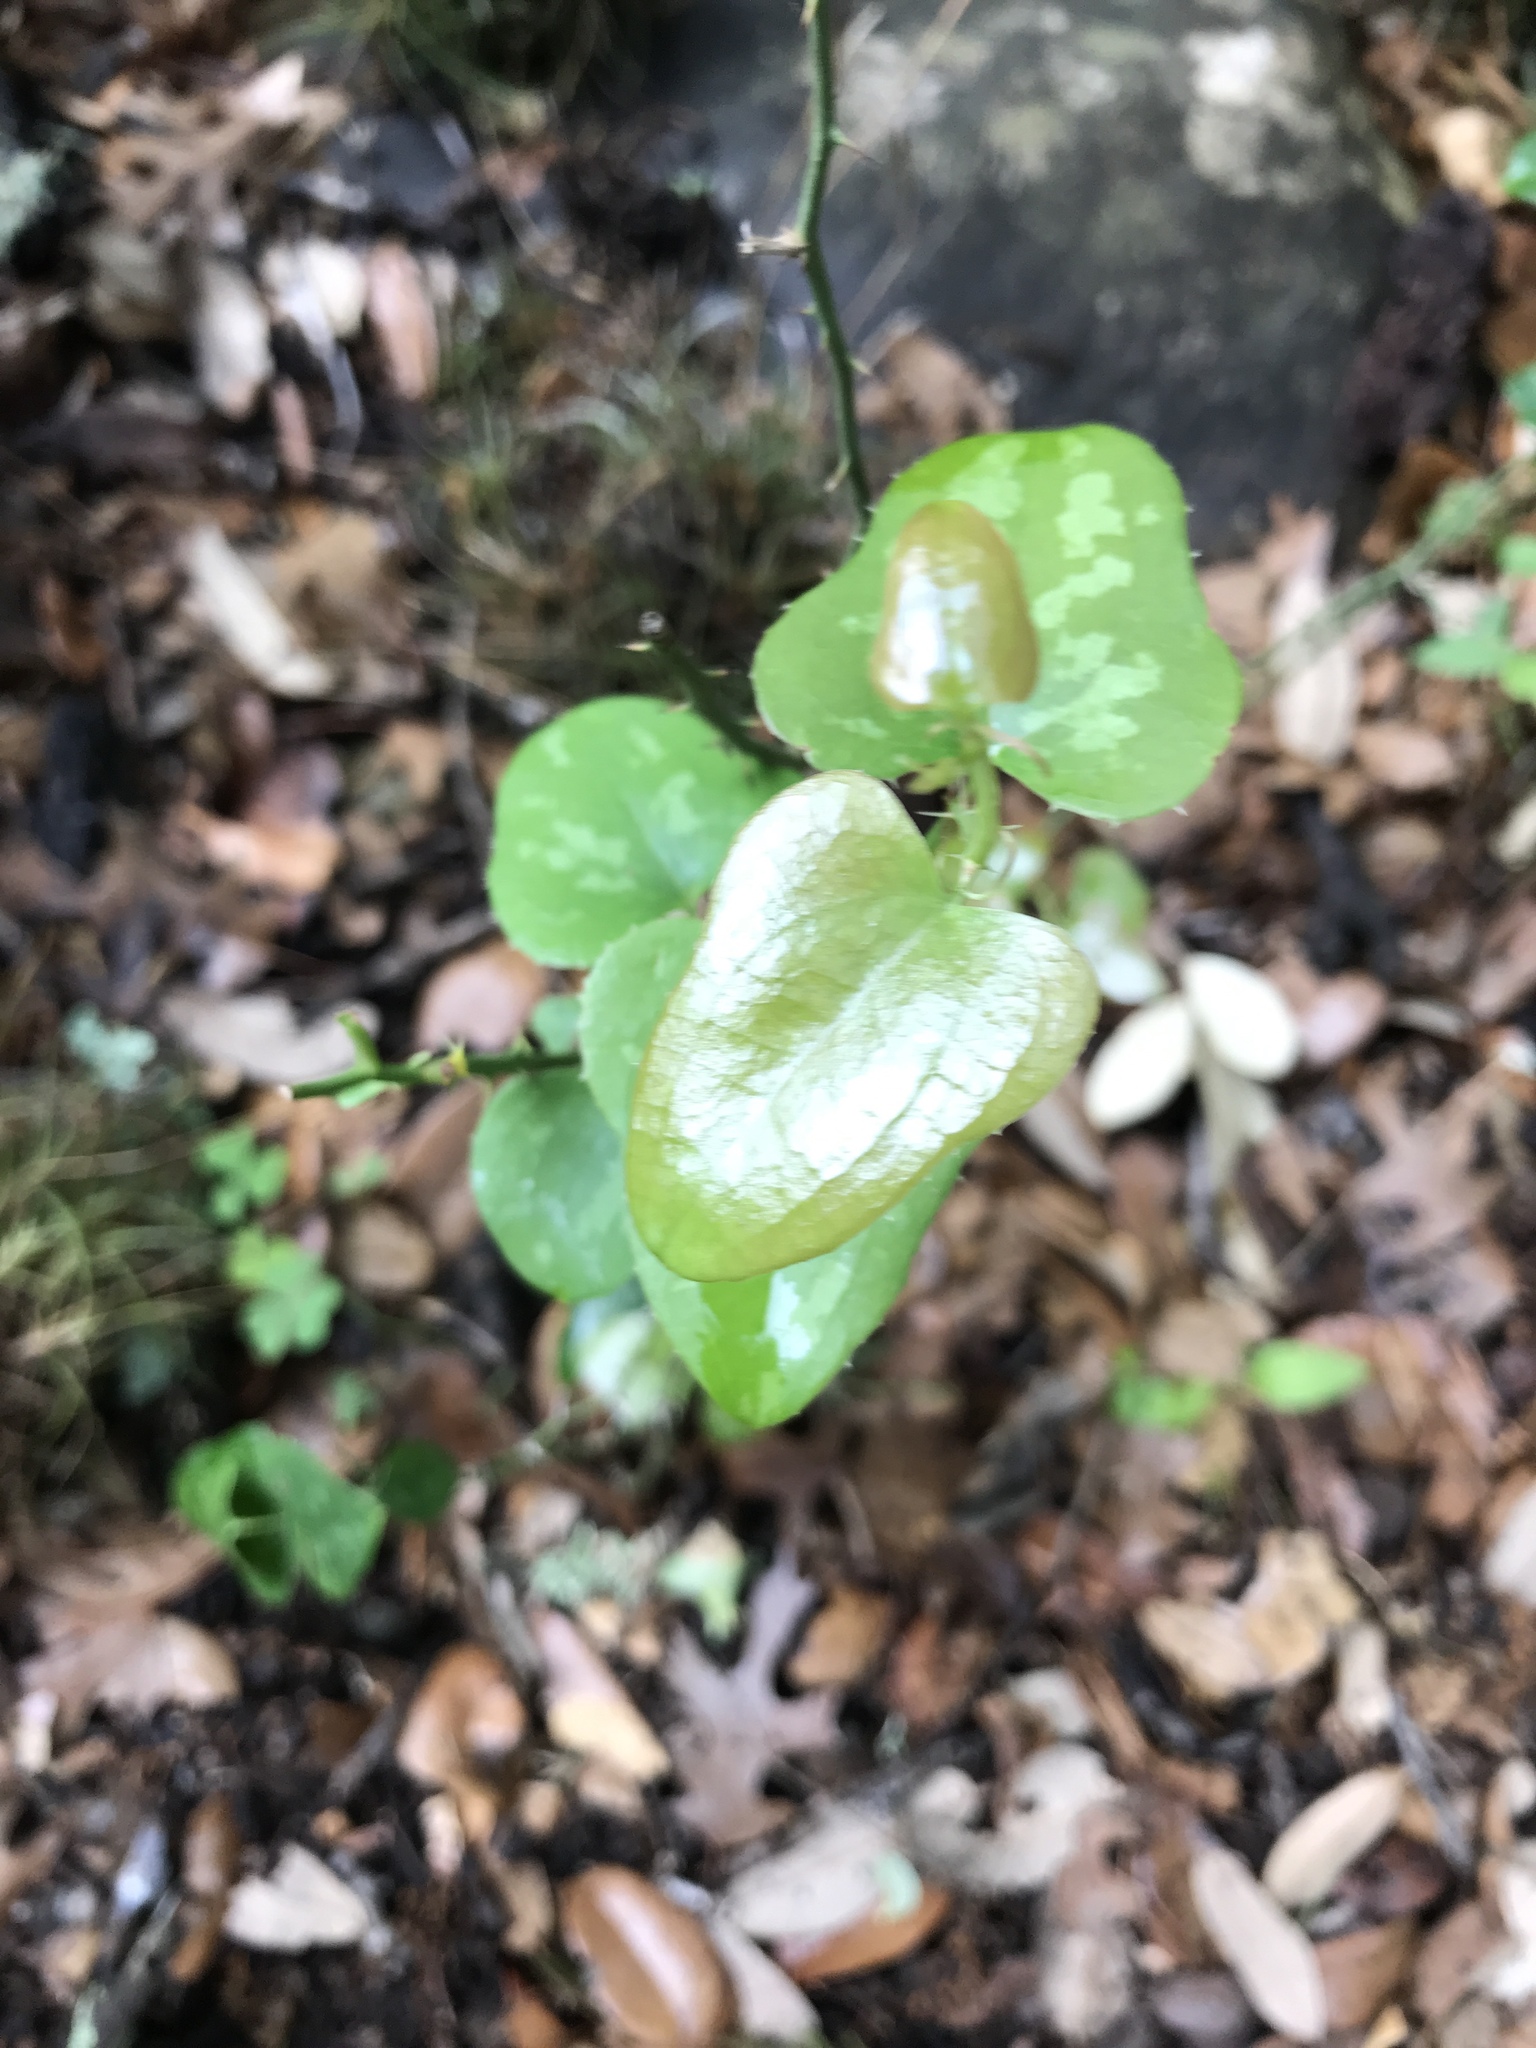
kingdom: Plantae
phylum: Tracheophyta
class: Liliopsida
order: Liliales
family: Smilacaceae
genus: Smilax
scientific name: Smilax bona-nox
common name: Catbrier
